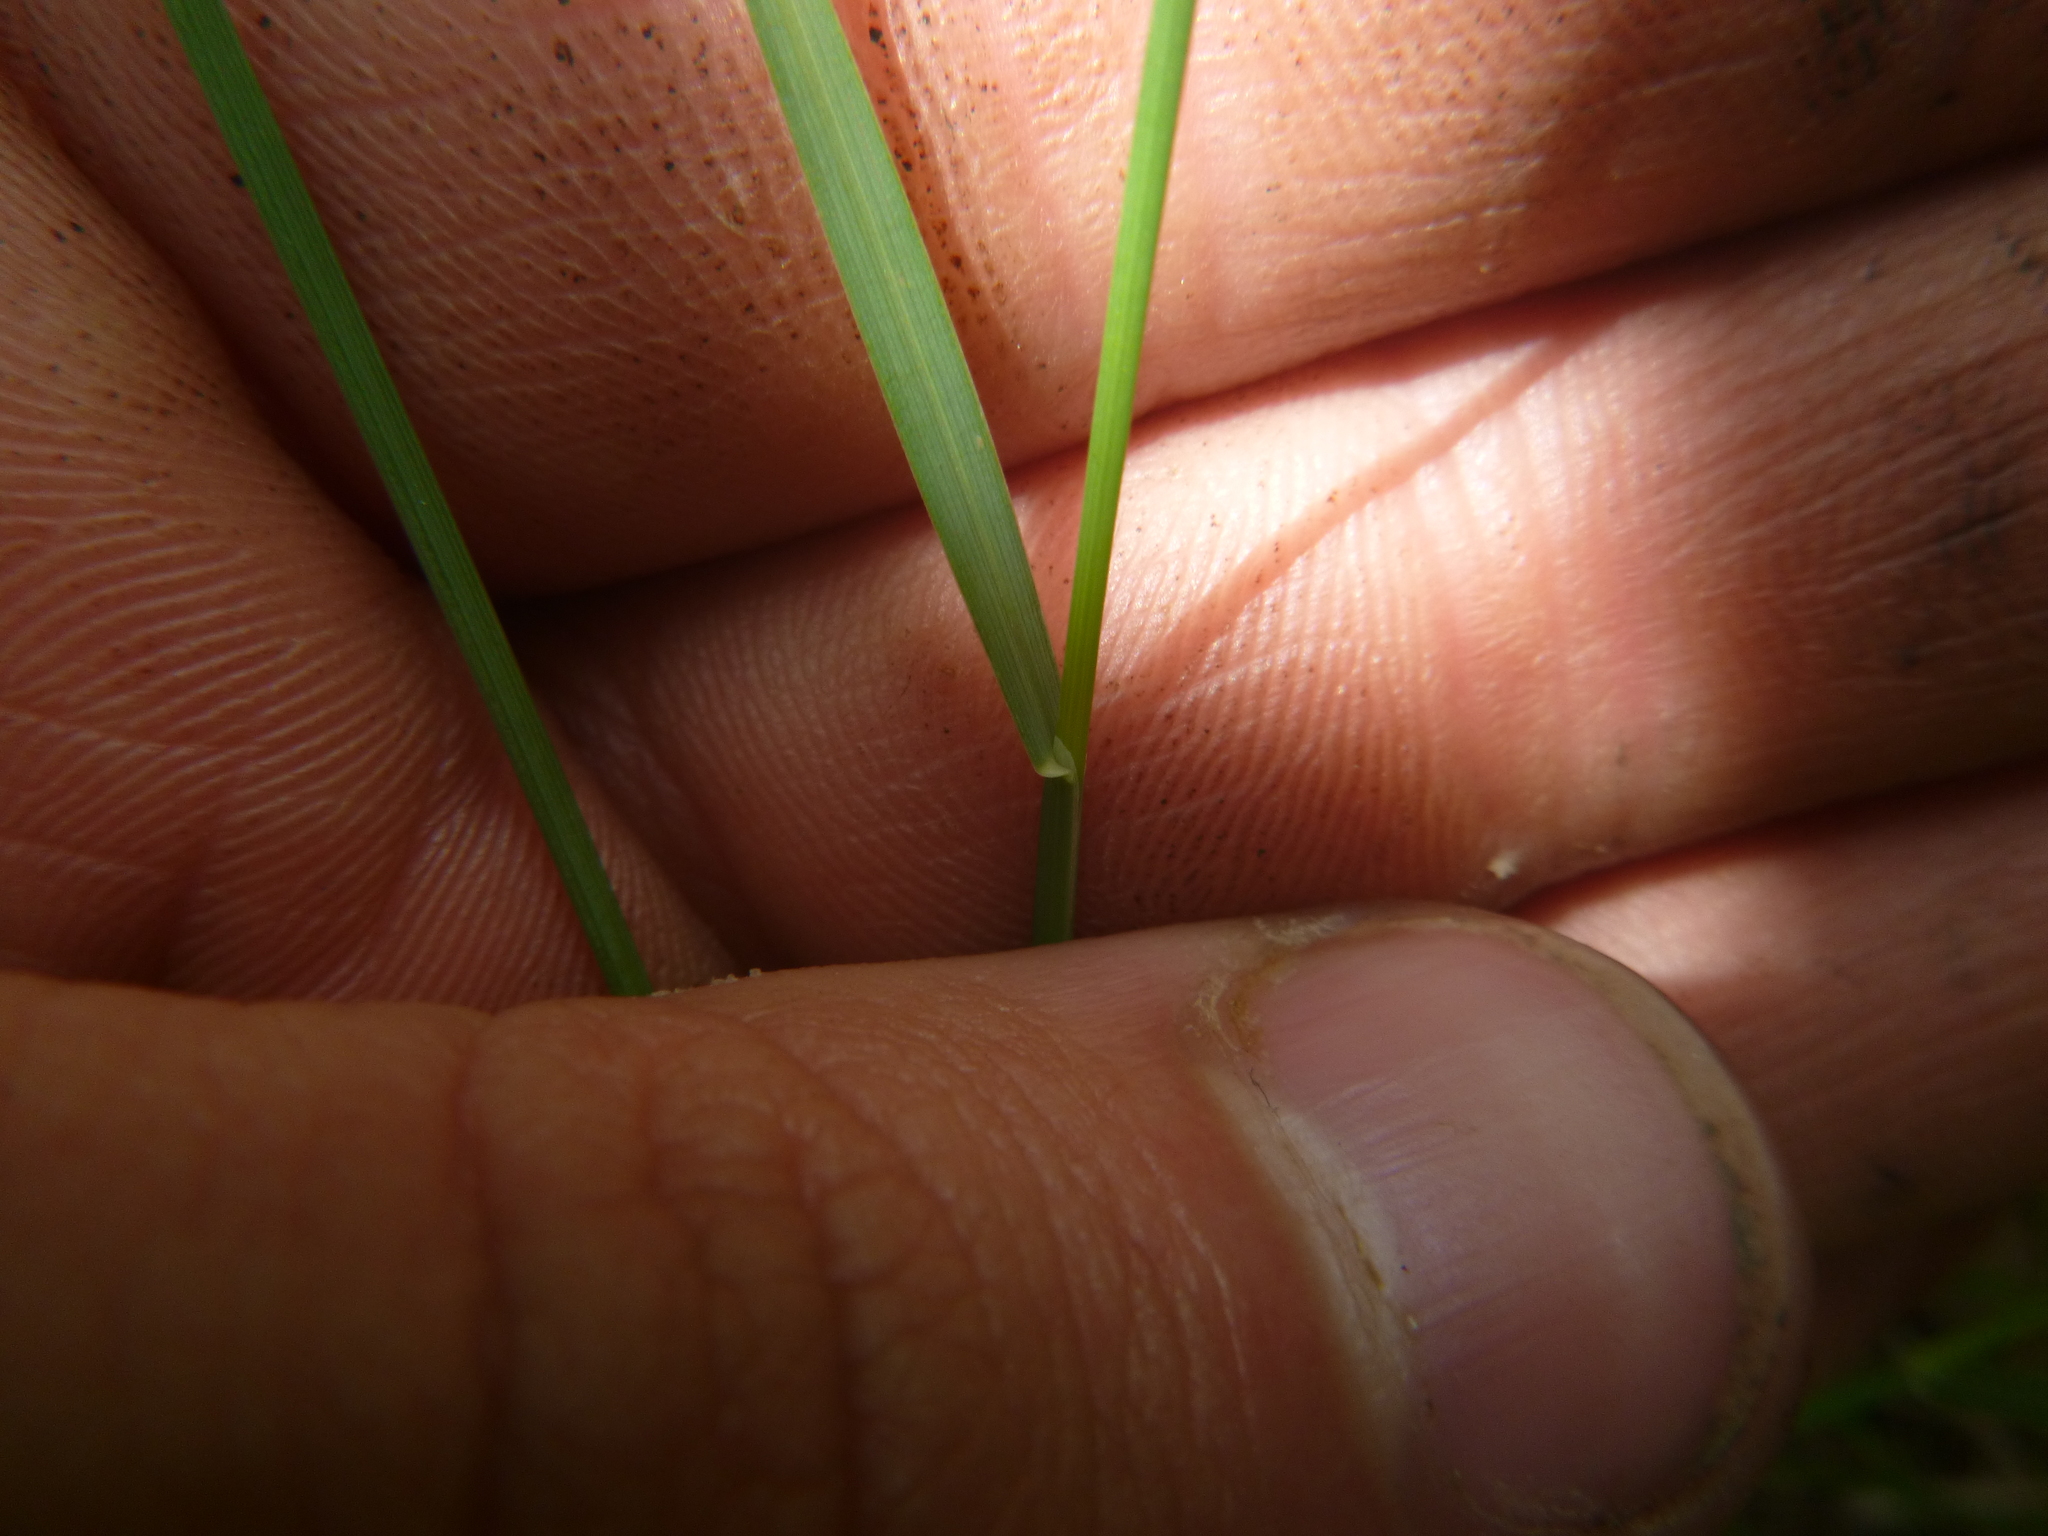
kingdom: Plantae
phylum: Tracheophyta
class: Liliopsida
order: Poales
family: Poaceae
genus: Poa
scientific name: Poa compressa
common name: Canada bluegrass
